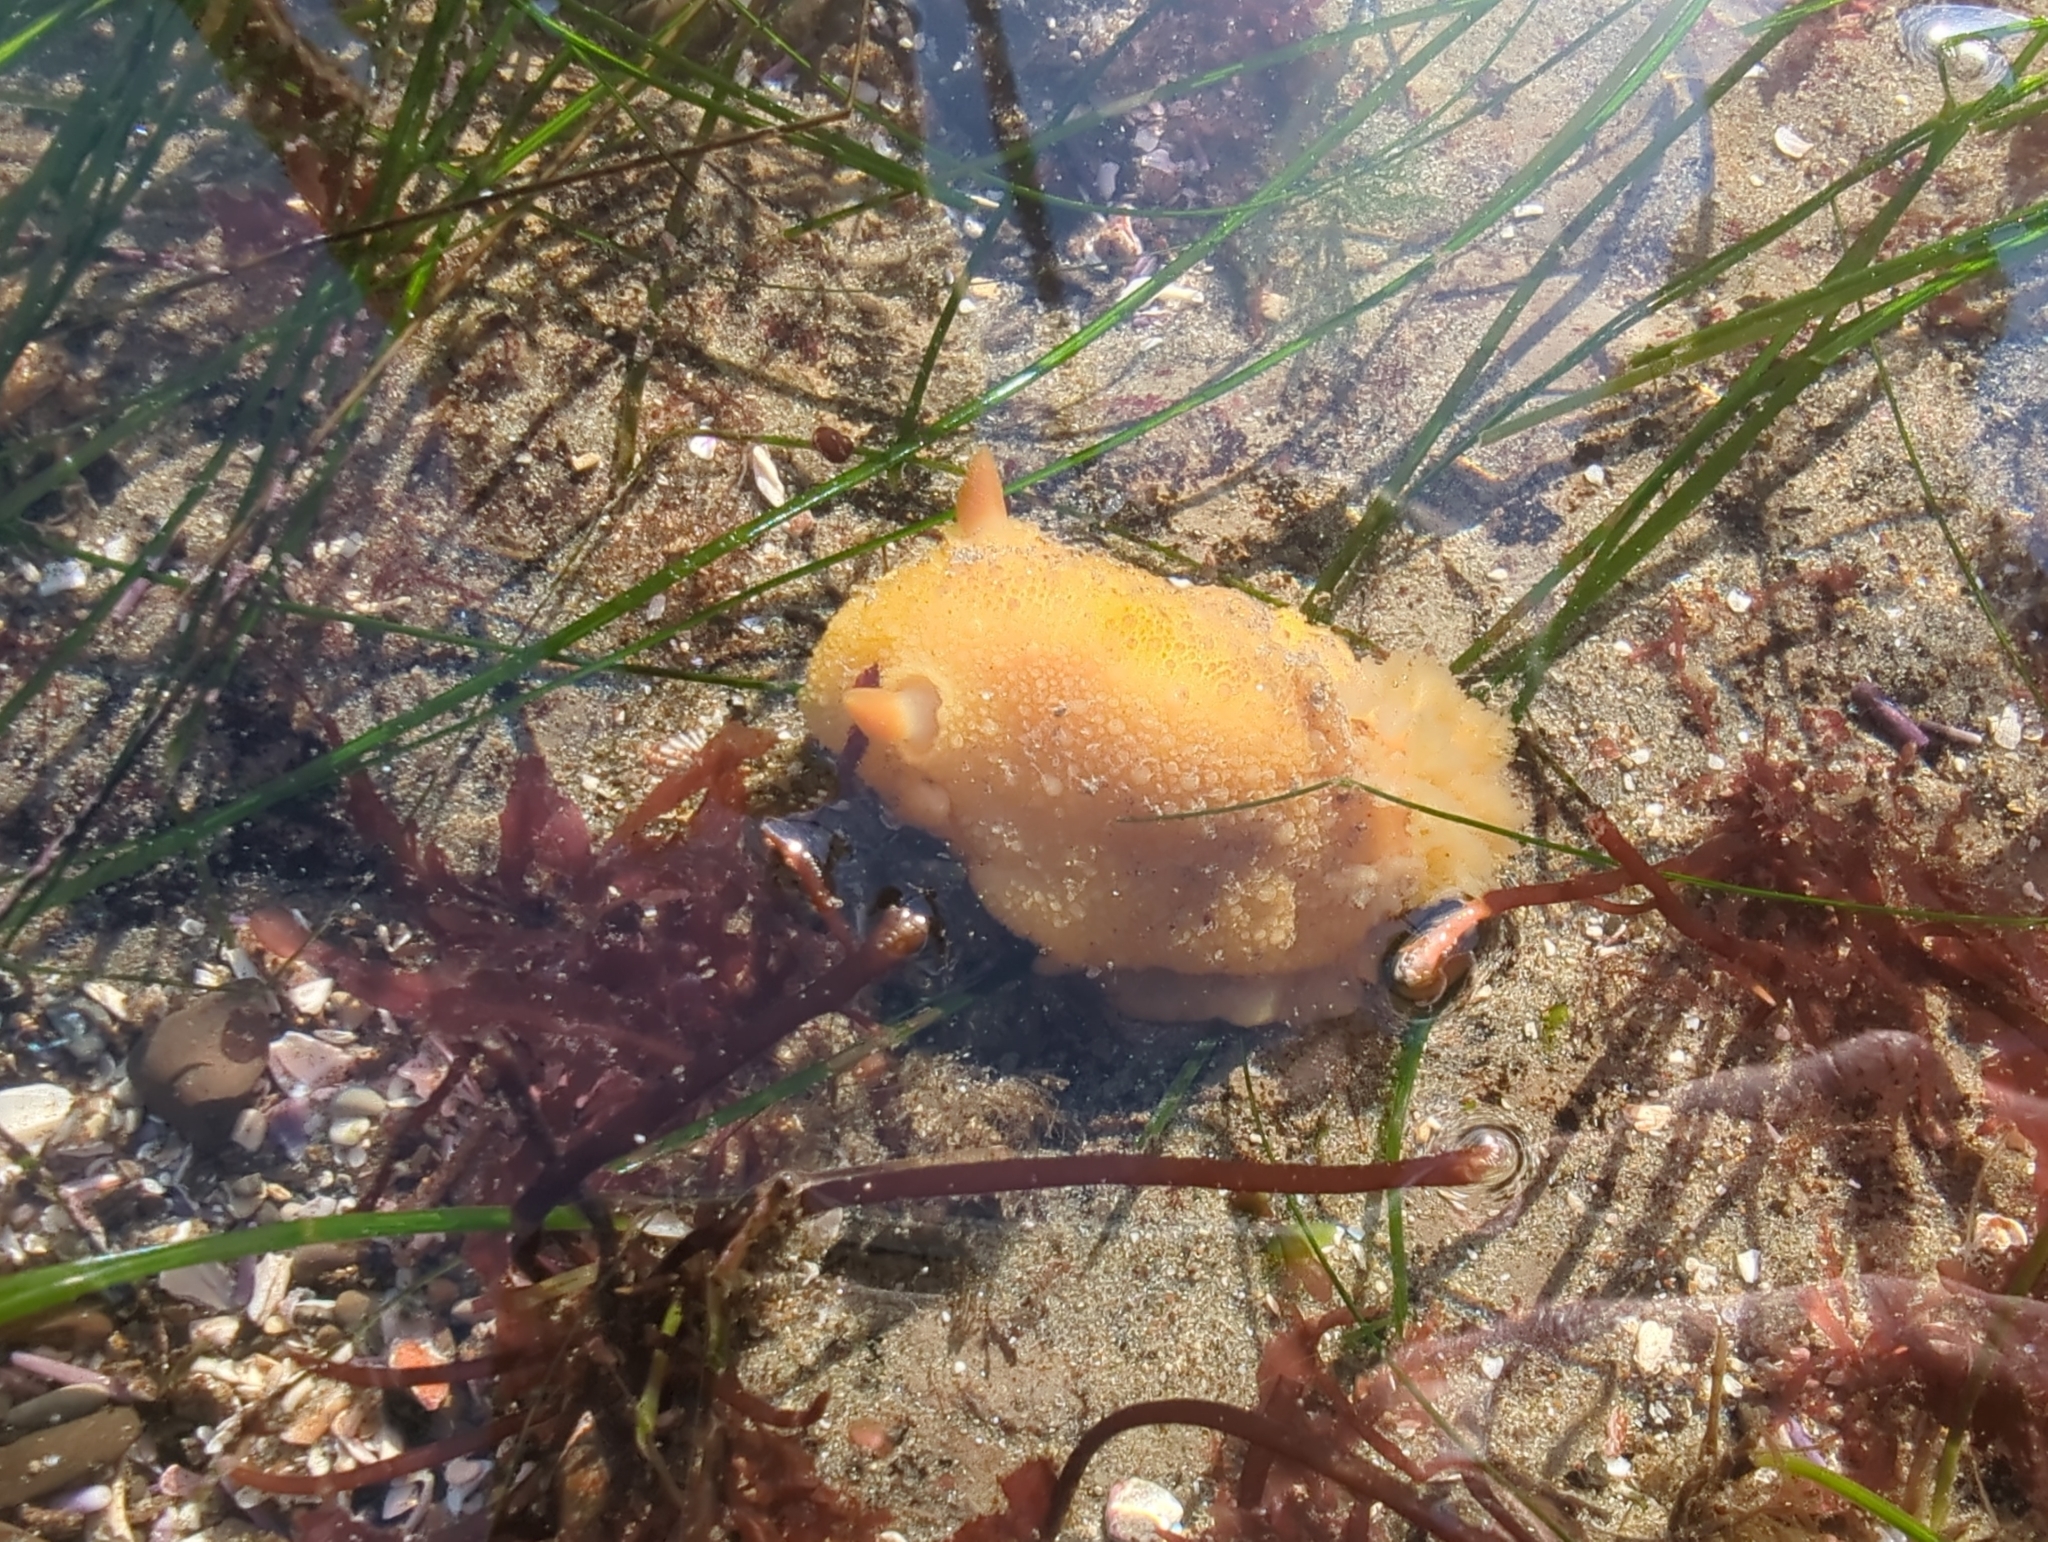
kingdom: Animalia
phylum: Mollusca
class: Gastropoda
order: Nudibranchia
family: Dorididae
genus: Doris
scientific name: Doris montereyensis
